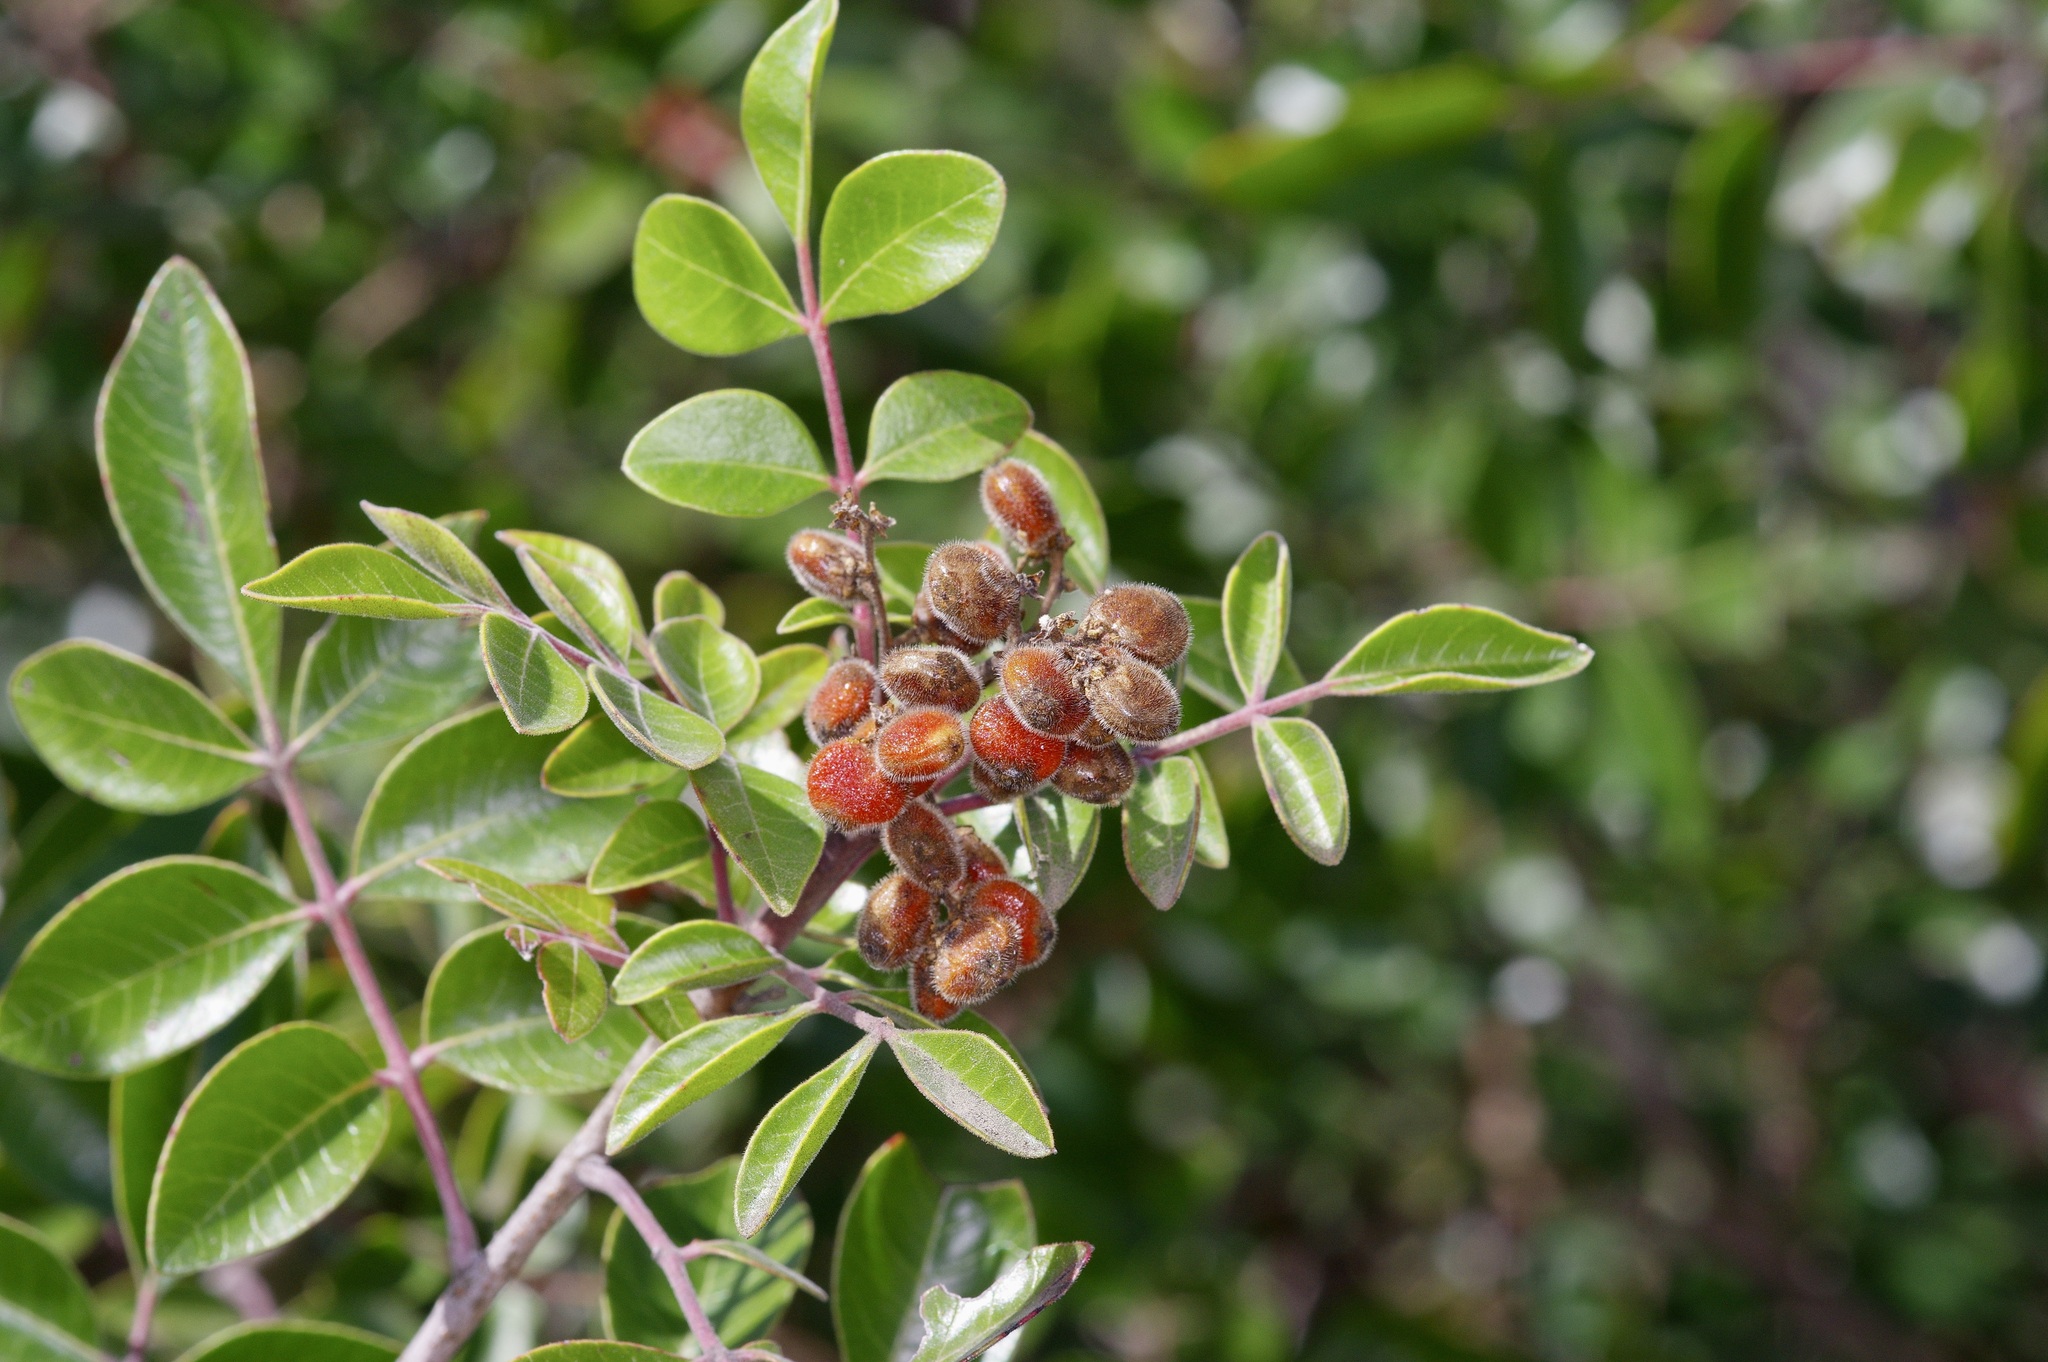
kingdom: Plantae
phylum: Tracheophyta
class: Magnoliopsida
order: Sapindales
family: Anacardiaceae
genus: Rhus
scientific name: Rhus virens
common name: Evergreen sumac
